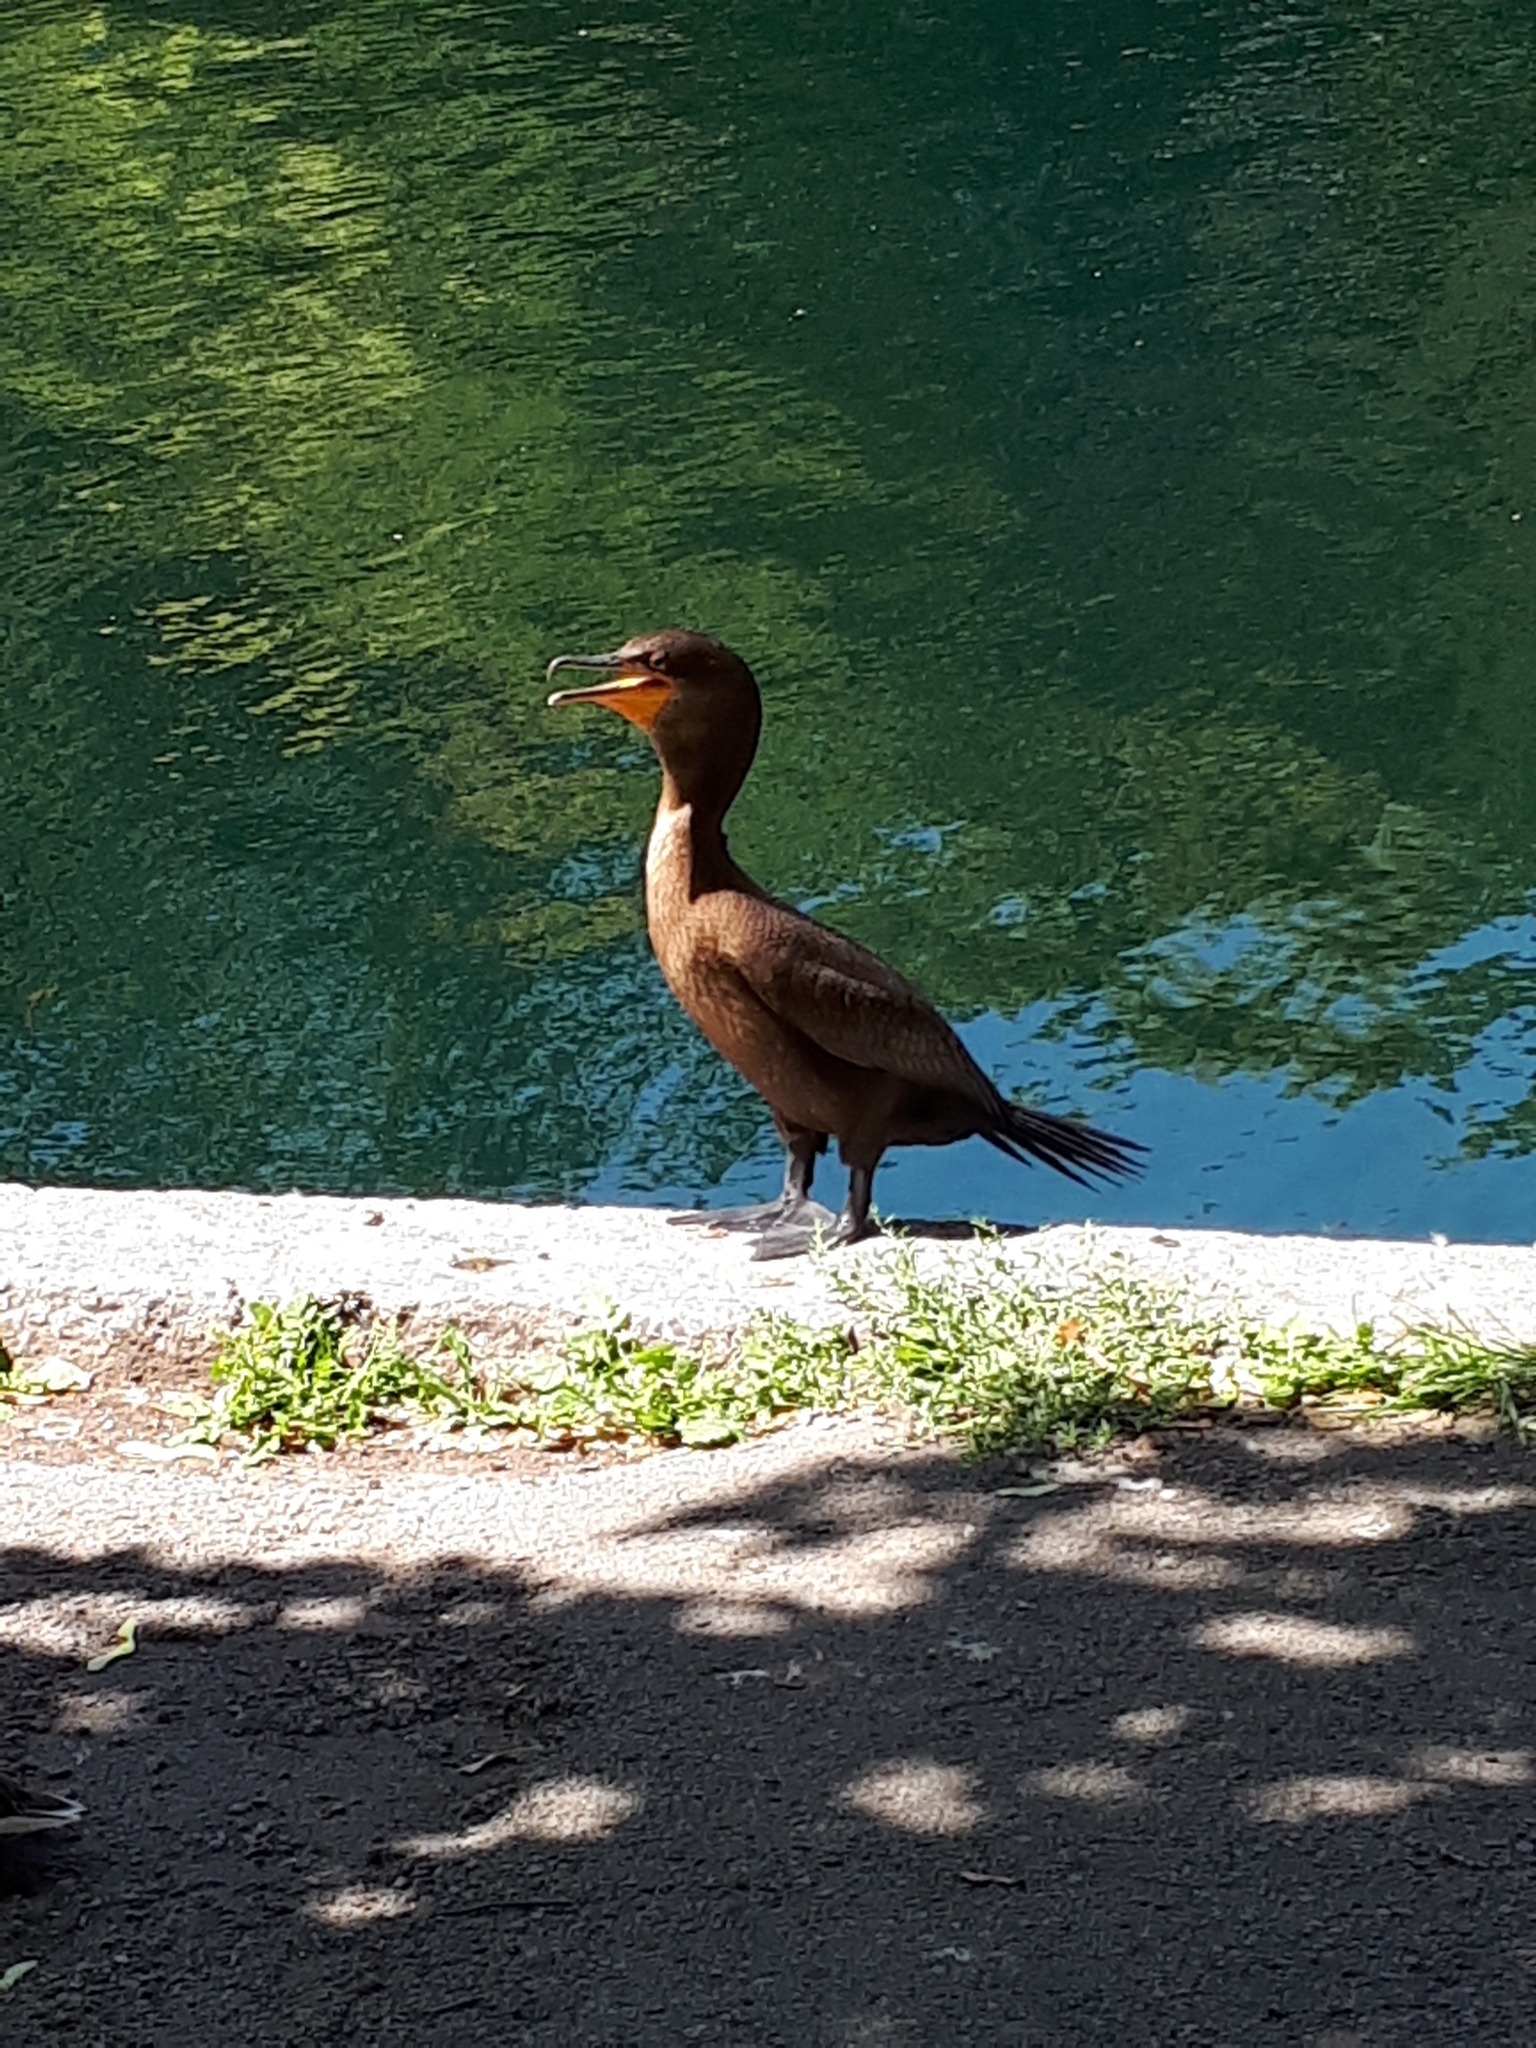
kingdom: Animalia
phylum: Chordata
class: Aves
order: Suliformes
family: Phalacrocoracidae
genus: Phalacrocorax
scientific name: Phalacrocorax auritus
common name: Double-crested cormorant
